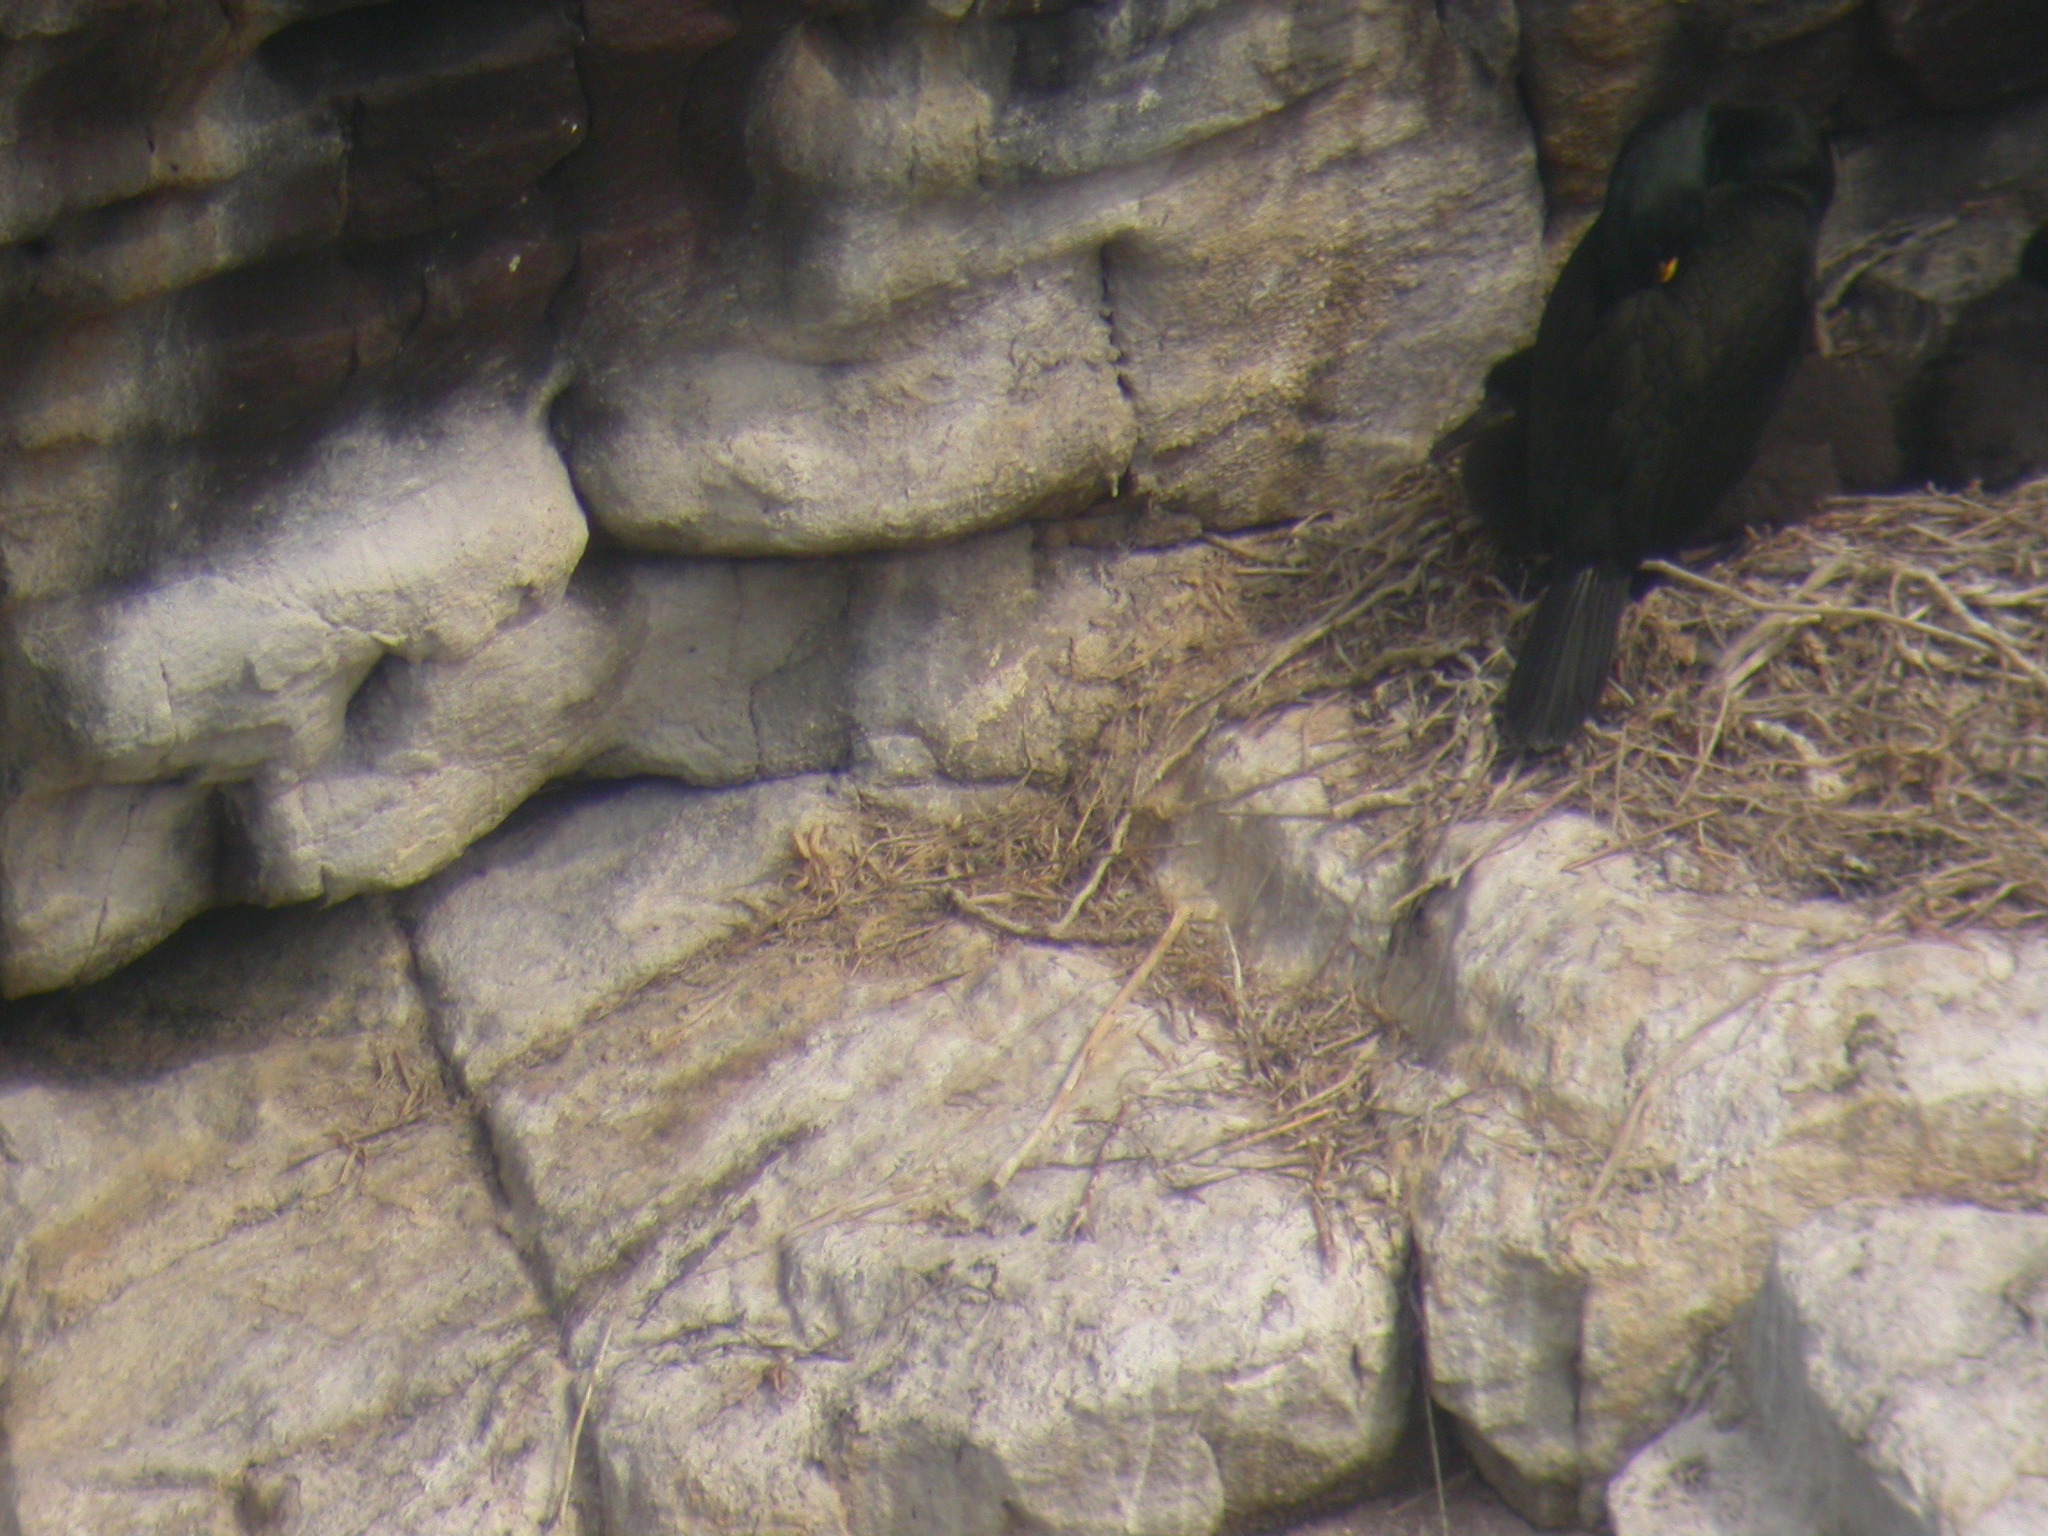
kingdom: Animalia
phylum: Chordata
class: Aves
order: Suliformes
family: Phalacrocoracidae
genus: Phalacrocorax
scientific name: Phalacrocorax aristotelis
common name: European shag
